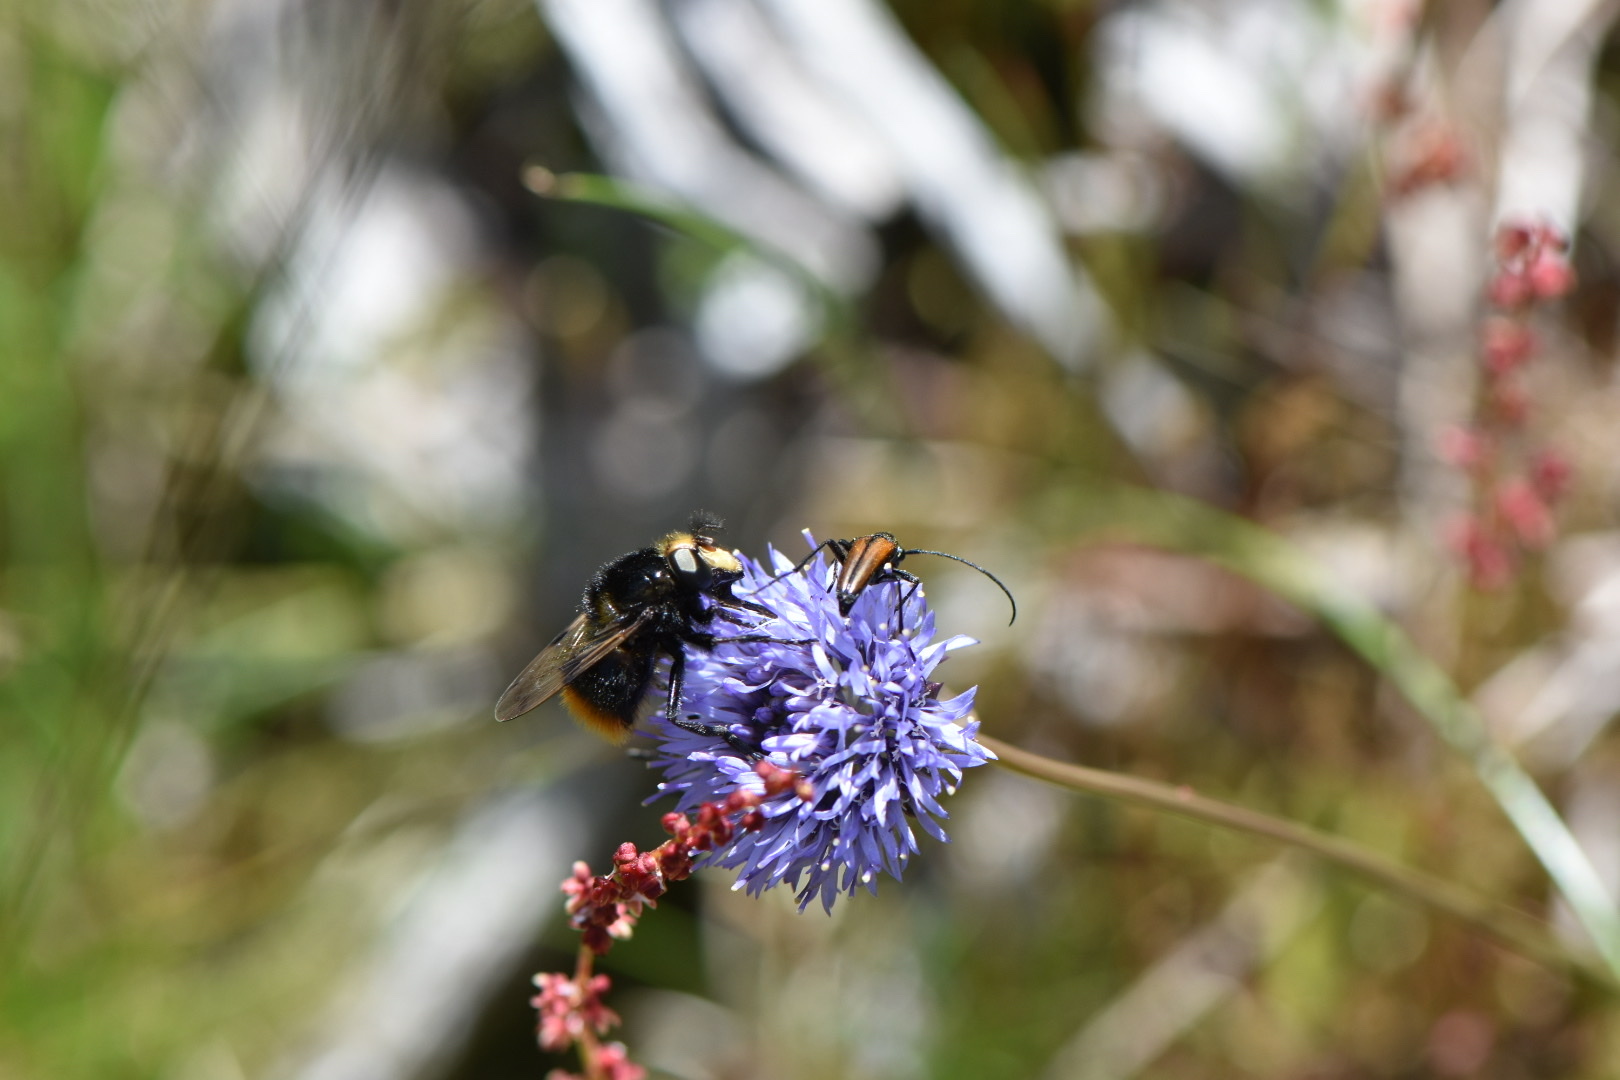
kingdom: Animalia
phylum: Arthropoda
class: Insecta
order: Diptera
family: Syrphidae
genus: Volucella
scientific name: Volucella bombylans
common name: Bumble bee hover fly
